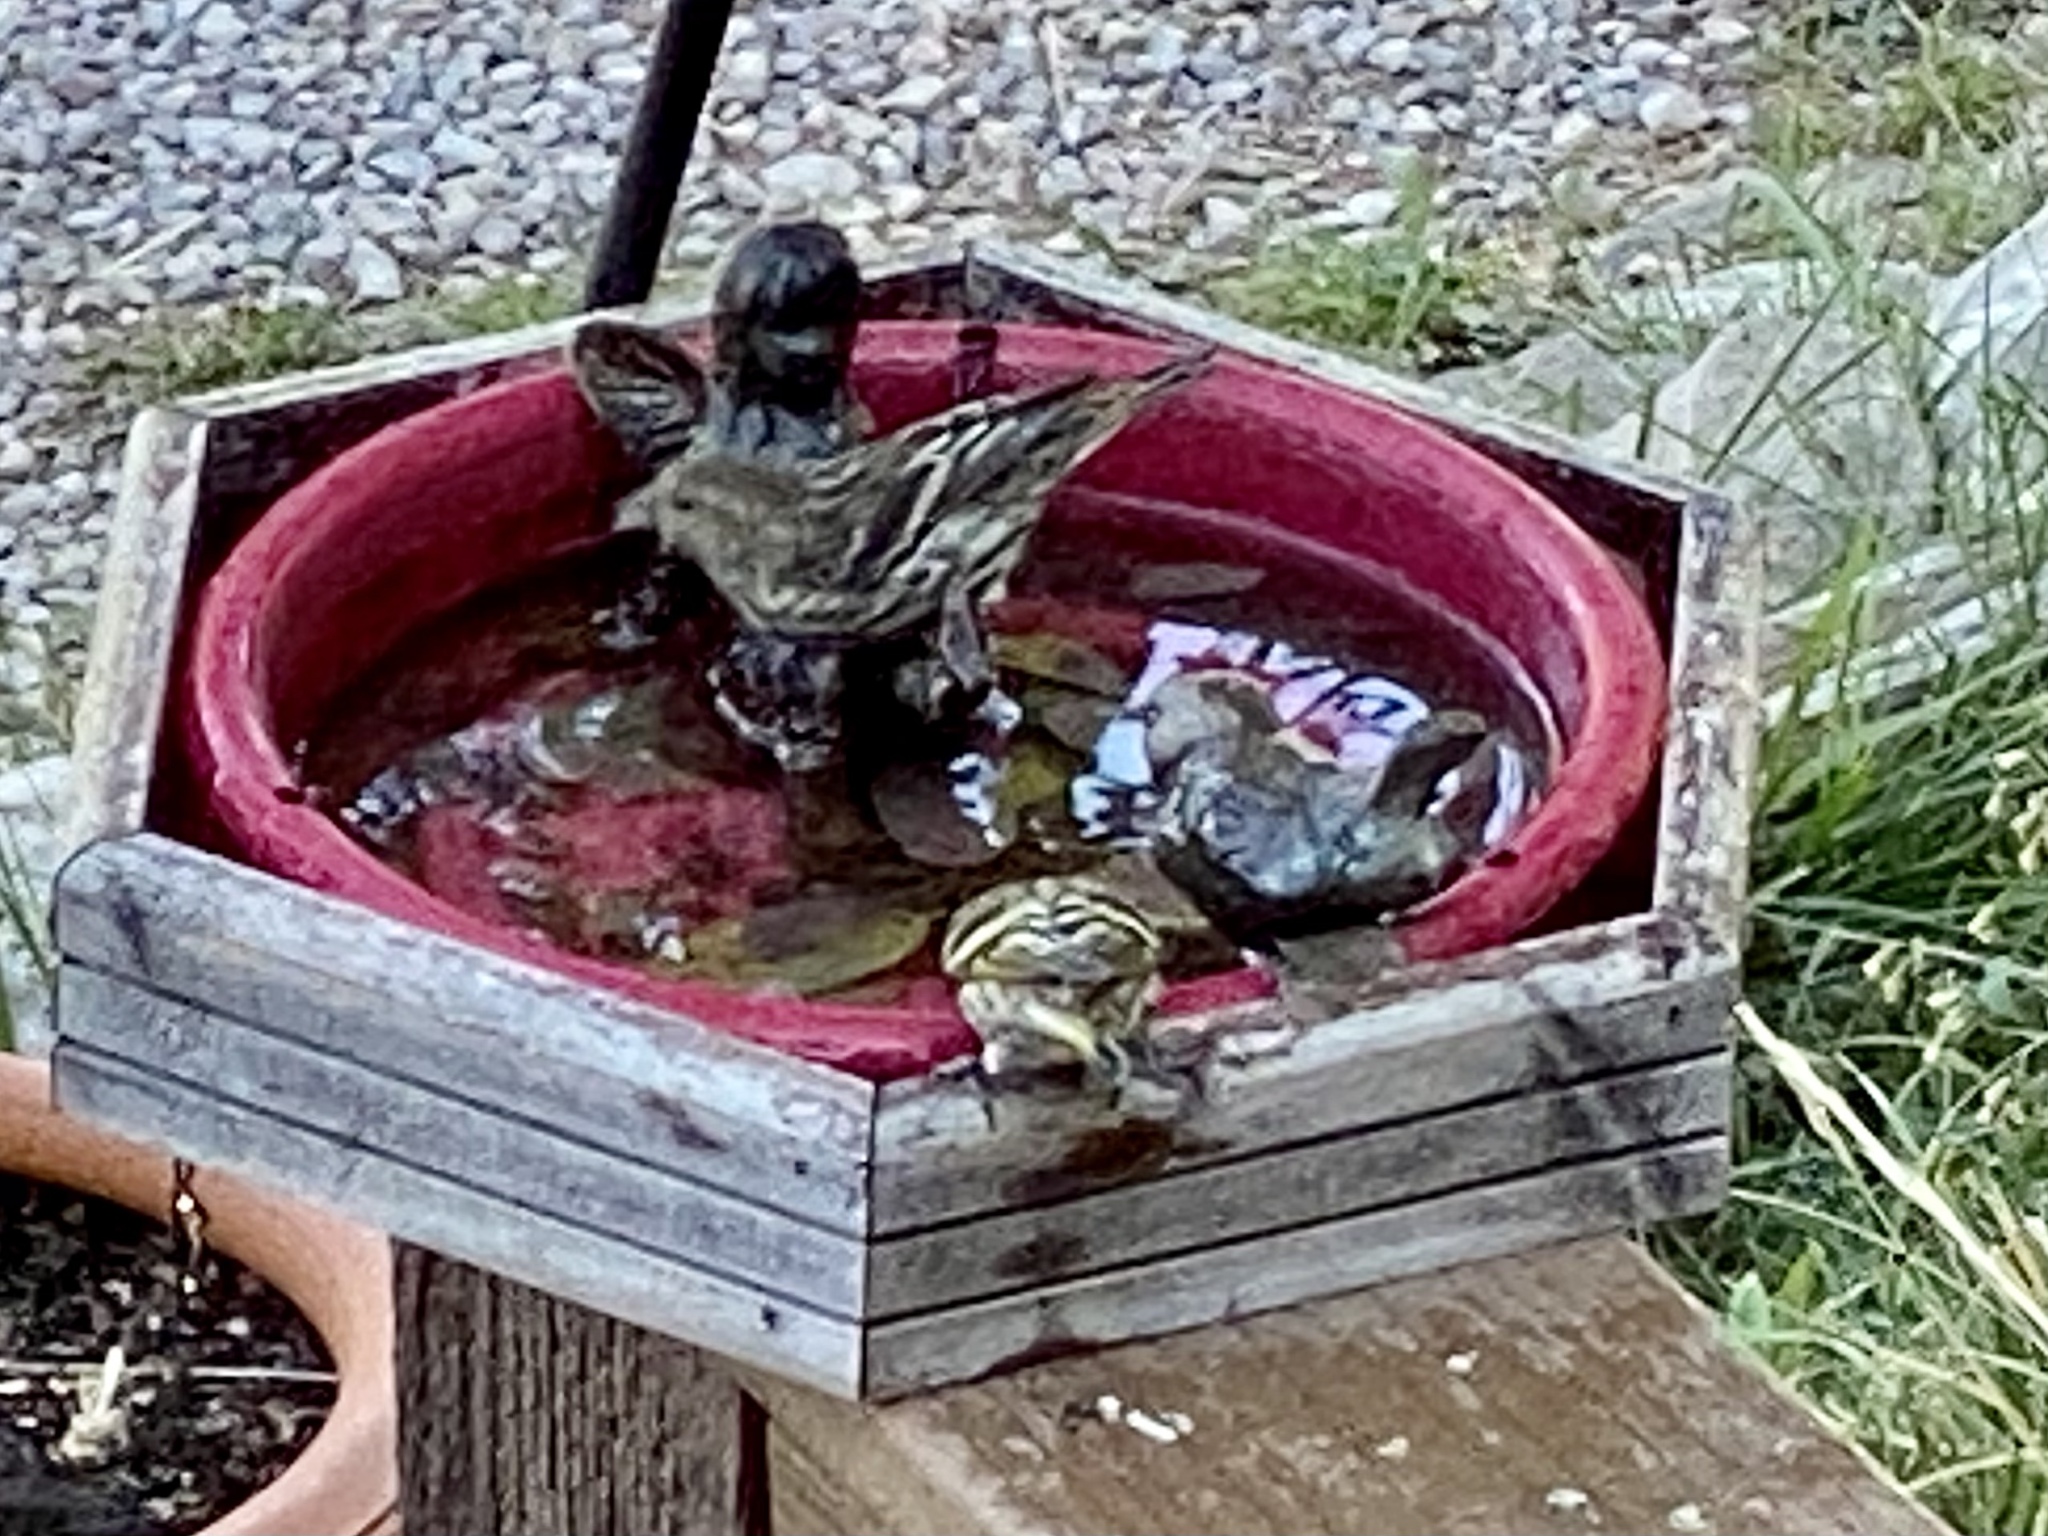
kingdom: Animalia
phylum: Chordata
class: Aves
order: Passeriformes
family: Fringillidae
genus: Spinus
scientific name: Spinus pinus
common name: Pine siskin
